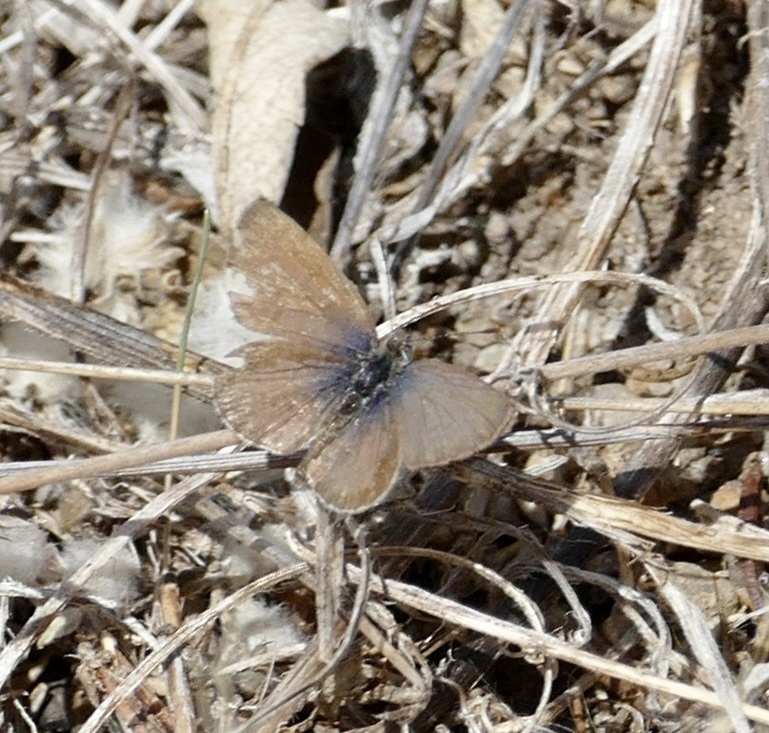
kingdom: Animalia
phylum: Arthropoda
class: Insecta
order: Lepidoptera
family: Lycaenidae
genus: Zizeeria
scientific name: Zizeeria knysna
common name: African grass blue
